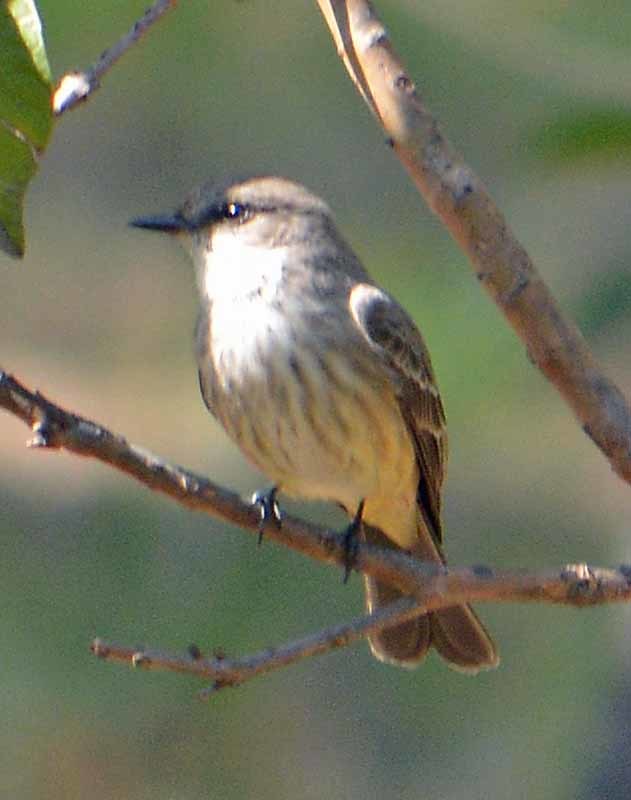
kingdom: Animalia
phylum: Chordata
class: Aves
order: Passeriformes
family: Tyrannidae
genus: Pyrocephalus
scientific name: Pyrocephalus rubinus
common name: Vermilion flycatcher
